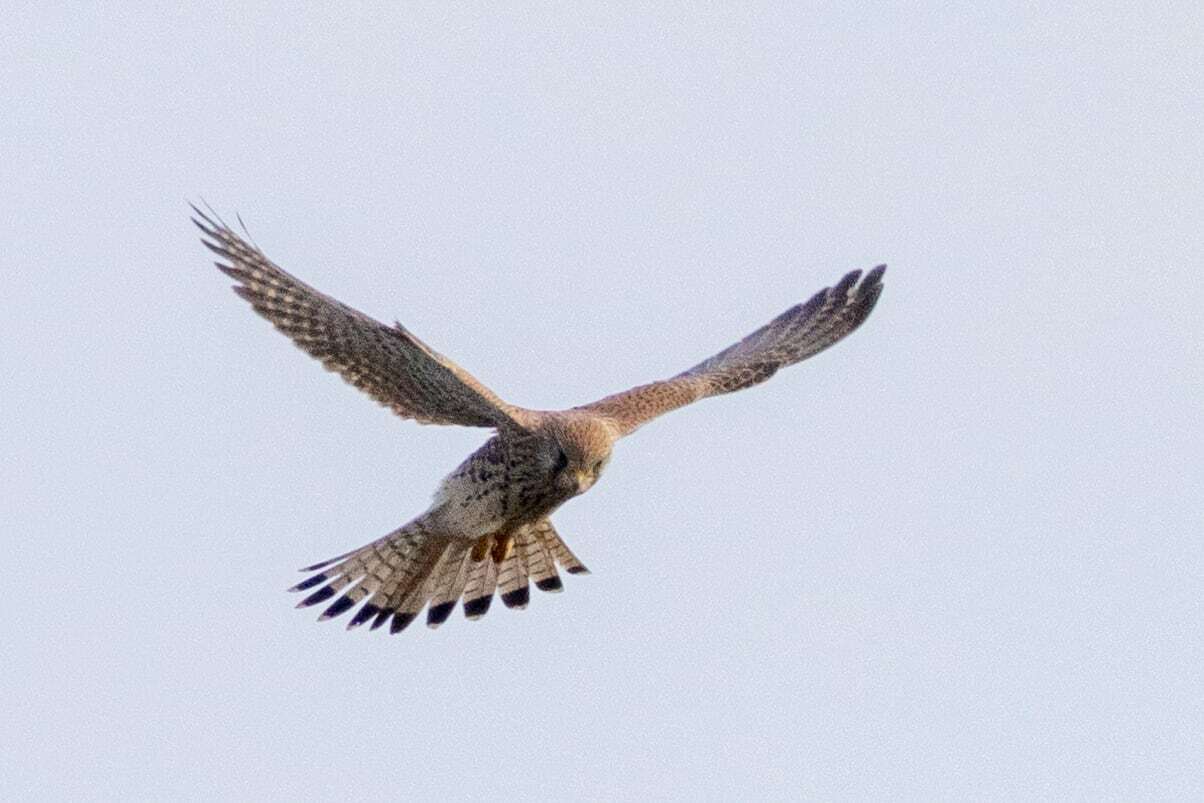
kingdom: Animalia
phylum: Chordata
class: Aves
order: Falconiformes
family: Falconidae
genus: Falco
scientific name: Falco tinnunculus
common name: Common kestrel
